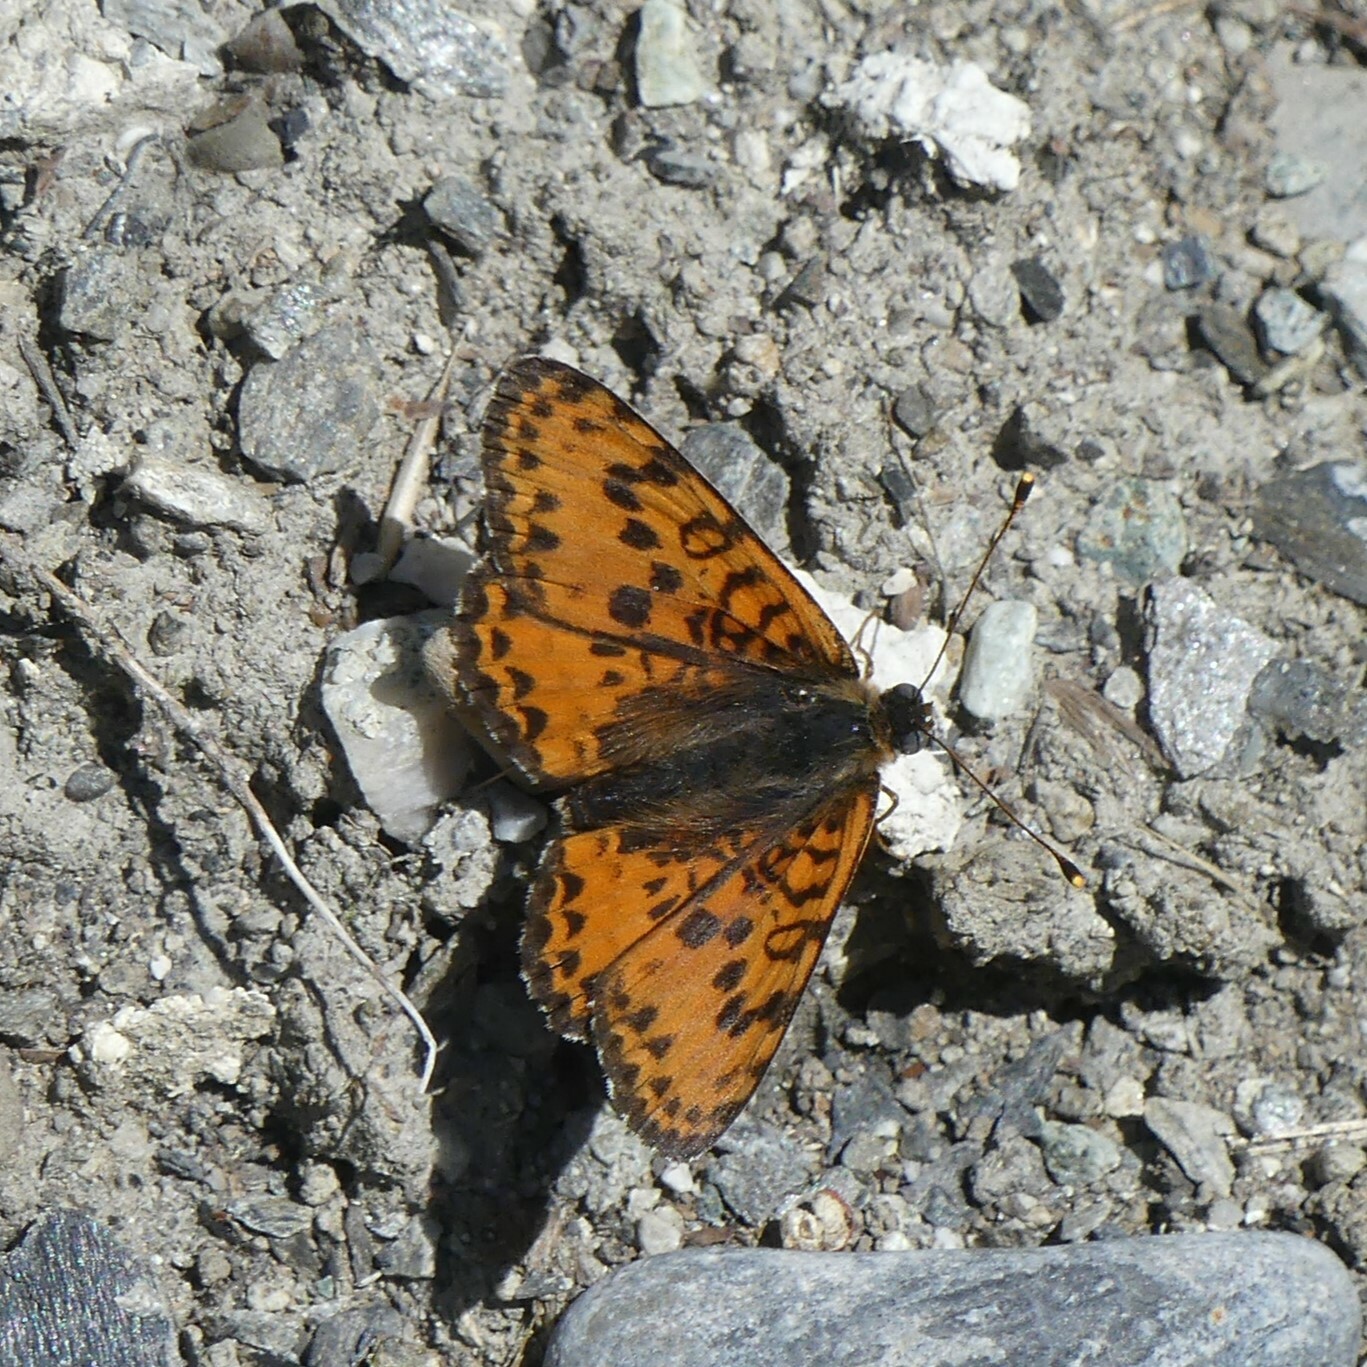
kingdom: Animalia
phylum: Arthropoda
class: Insecta
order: Lepidoptera
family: Nymphalidae
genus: Melitaea
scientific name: Melitaea didyma
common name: Spotted fritillary
